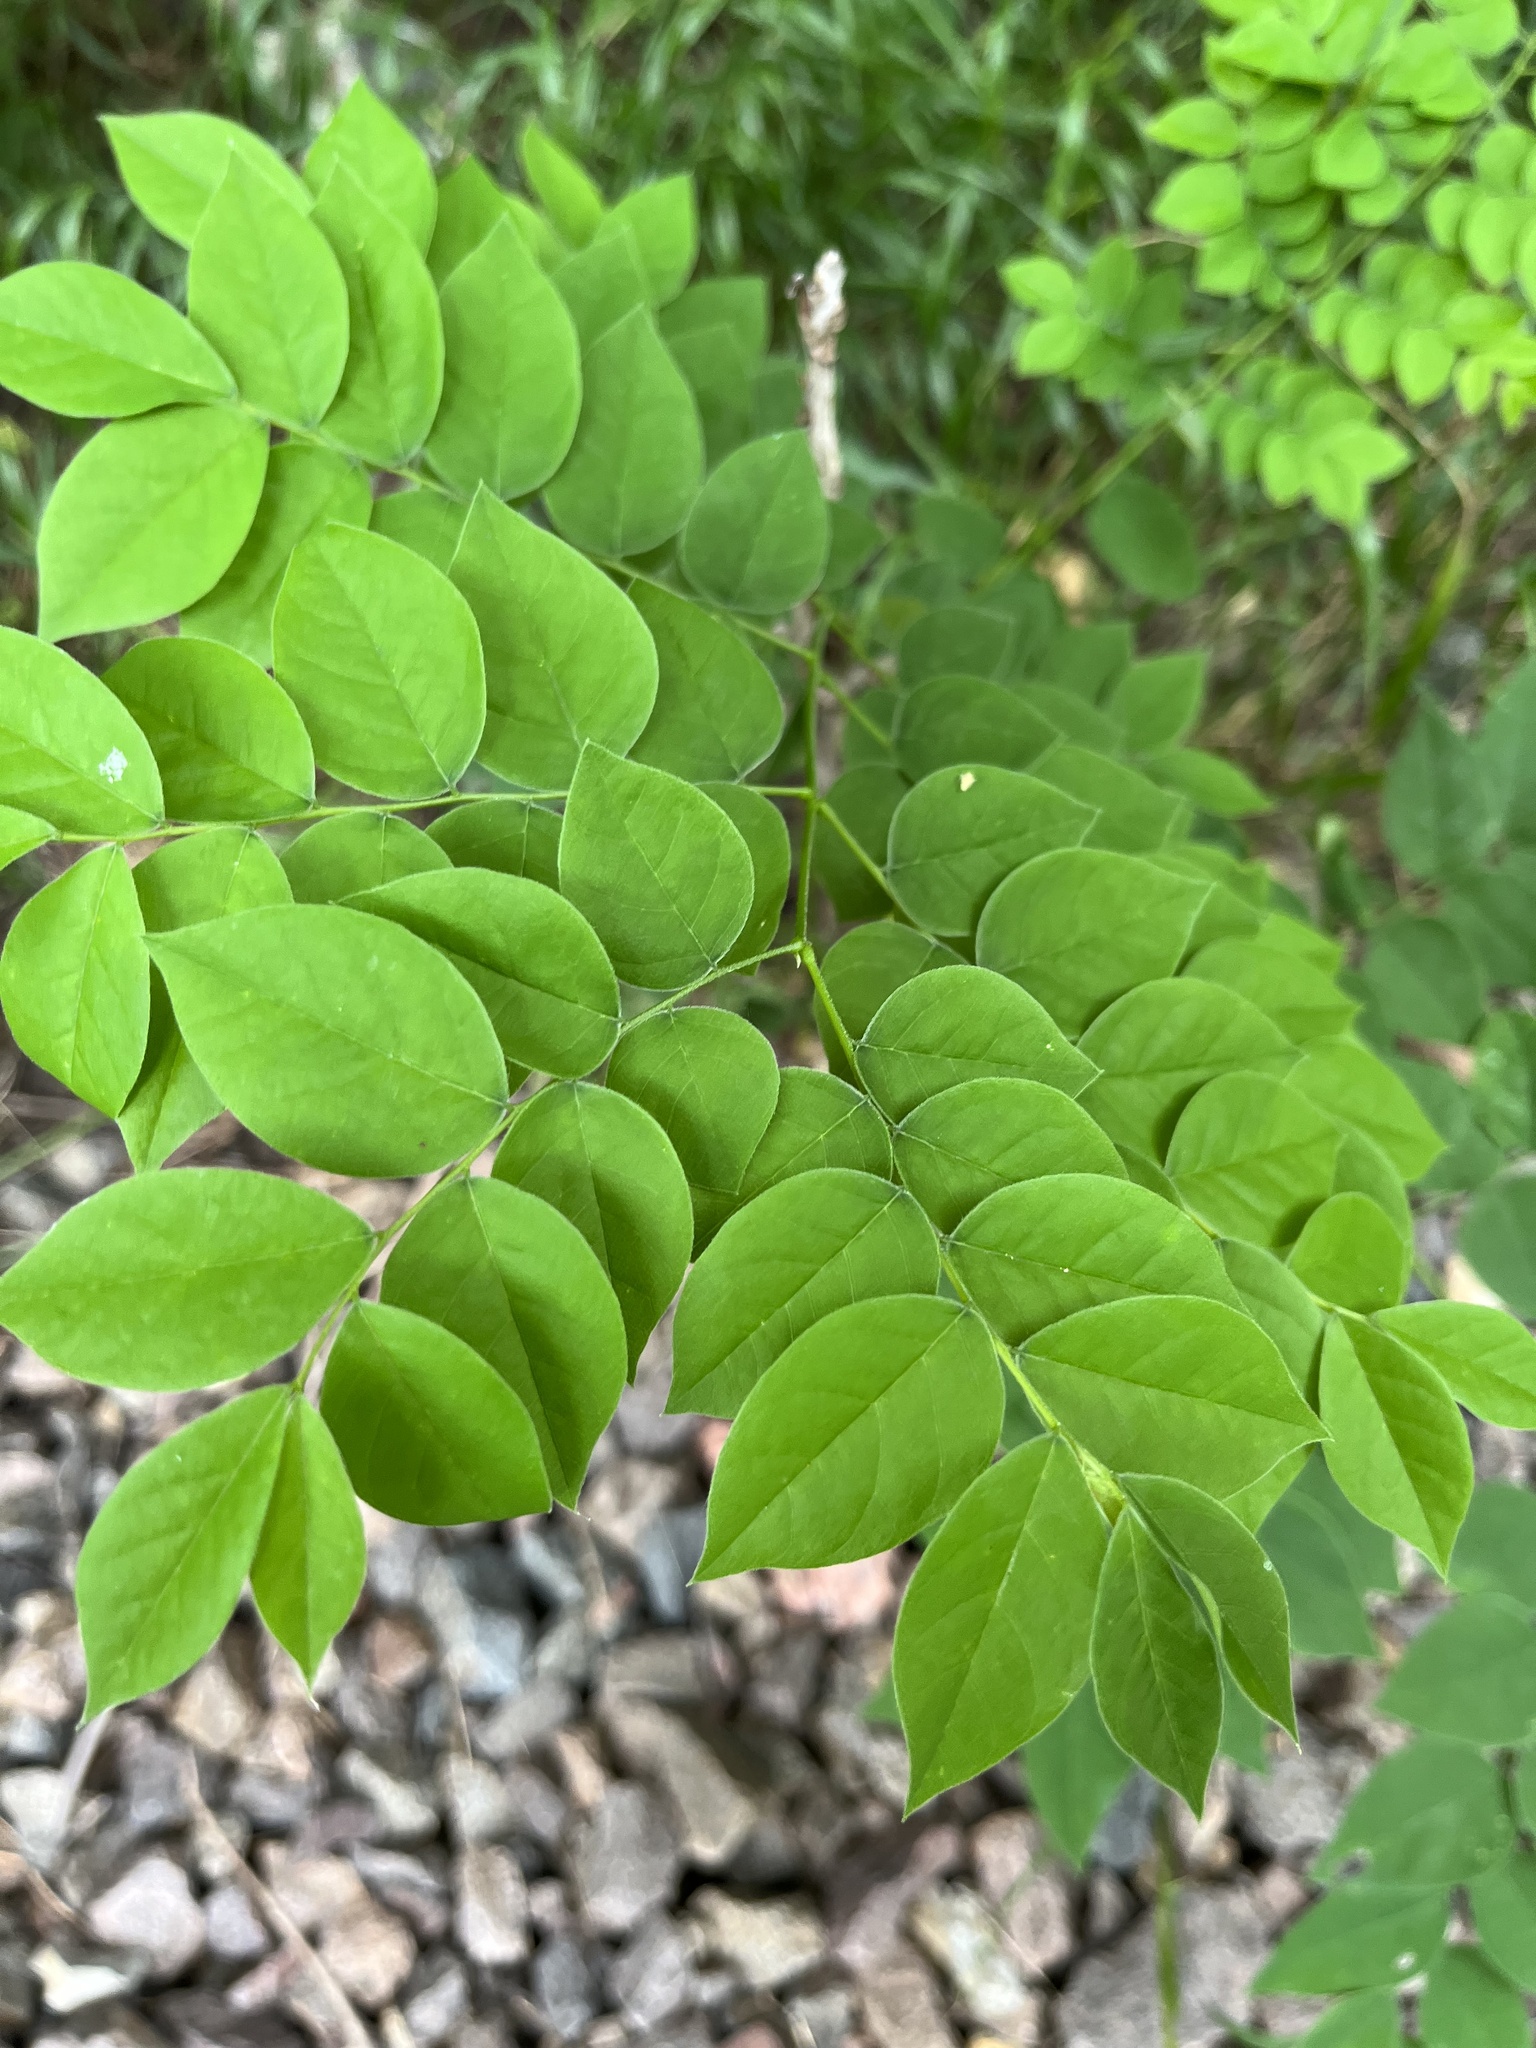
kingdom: Plantae
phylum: Tracheophyta
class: Magnoliopsida
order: Fabales
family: Fabaceae
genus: Gymnocladus
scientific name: Gymnocladus dioicus
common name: Kentucky coffee-tree
